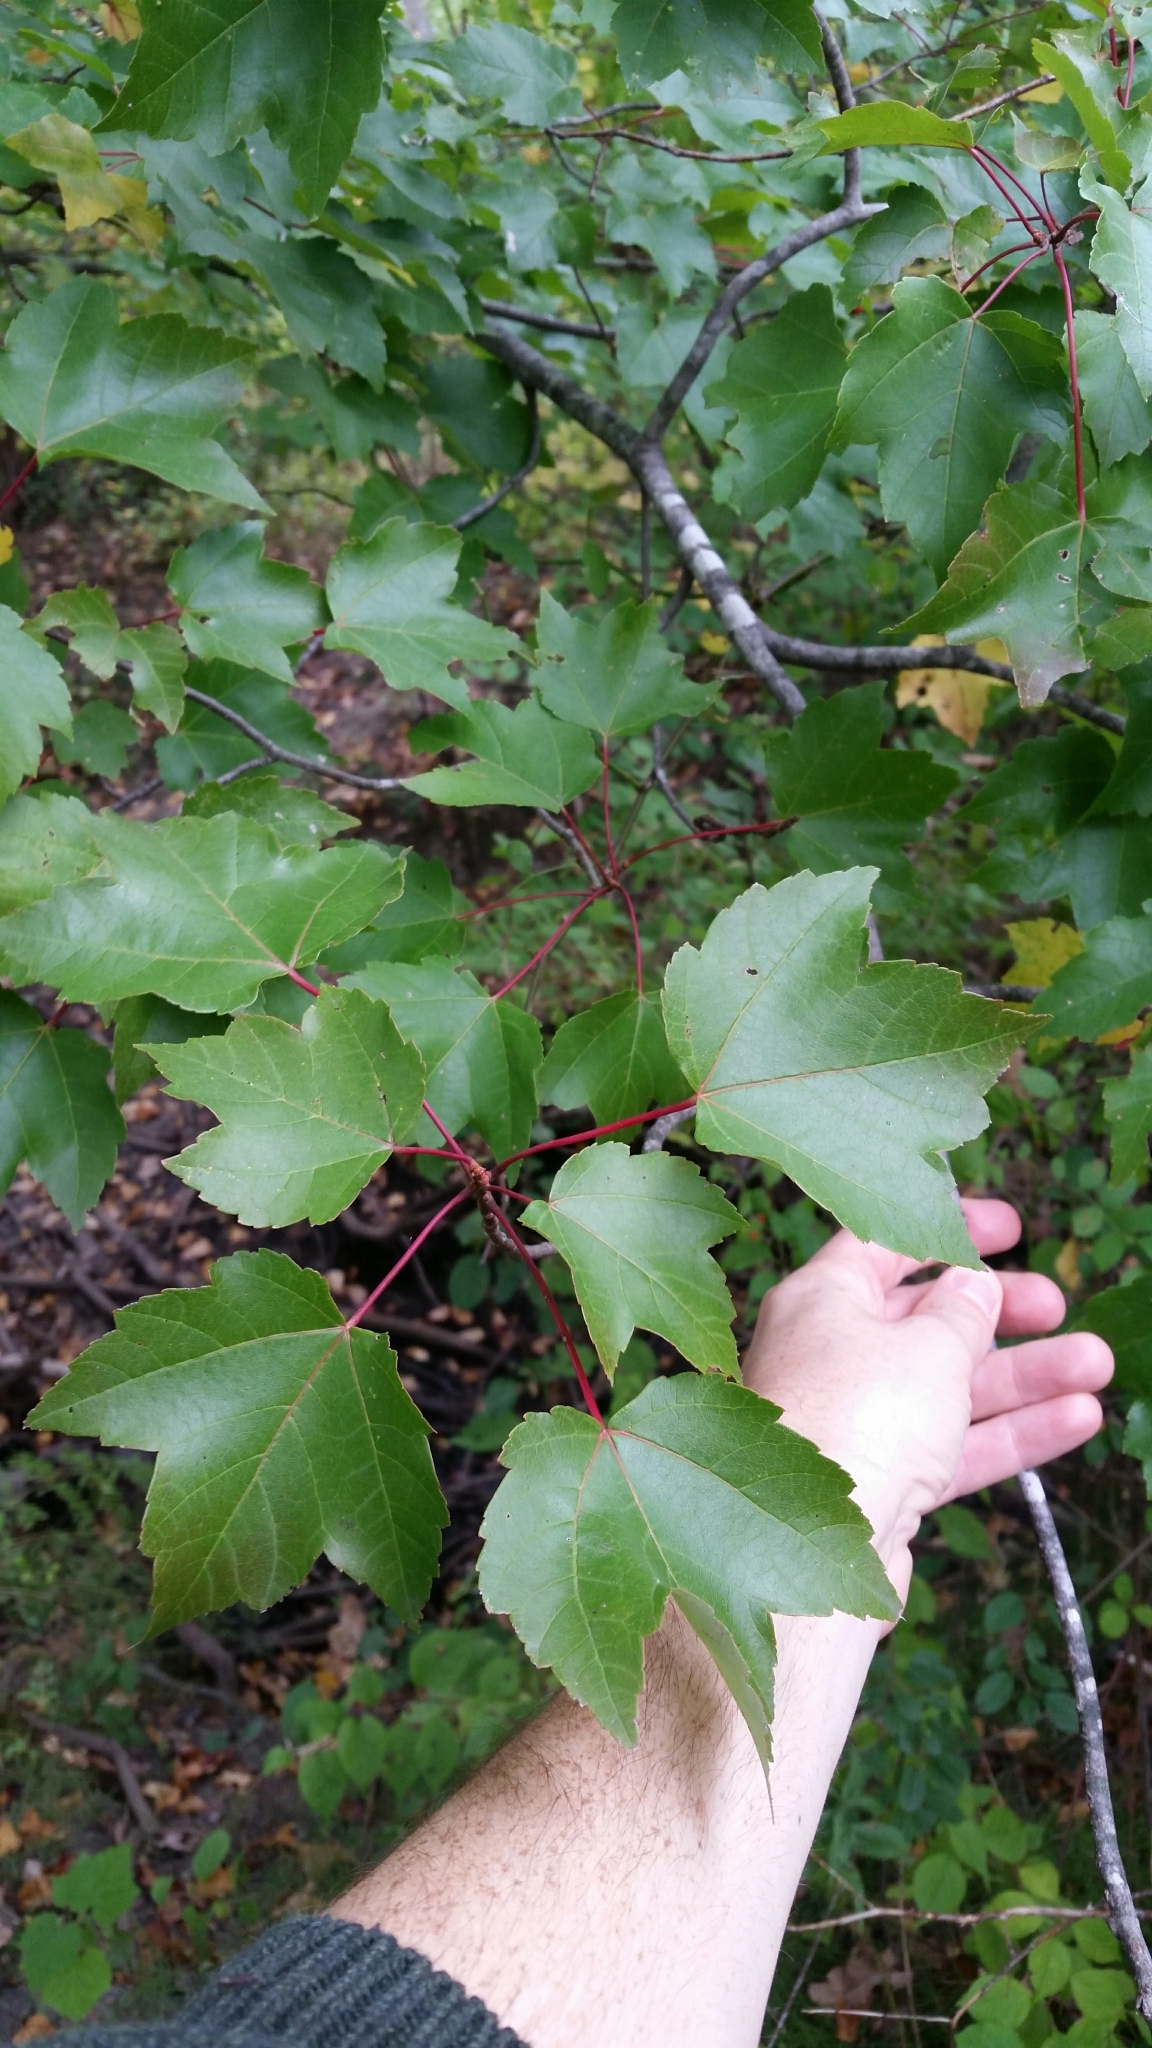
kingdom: Plantae
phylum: Tracheophyta
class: Magnoliopsida
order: Sapindales
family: Sapindaceae
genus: Acer
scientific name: Acer rubrum
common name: Red maple
